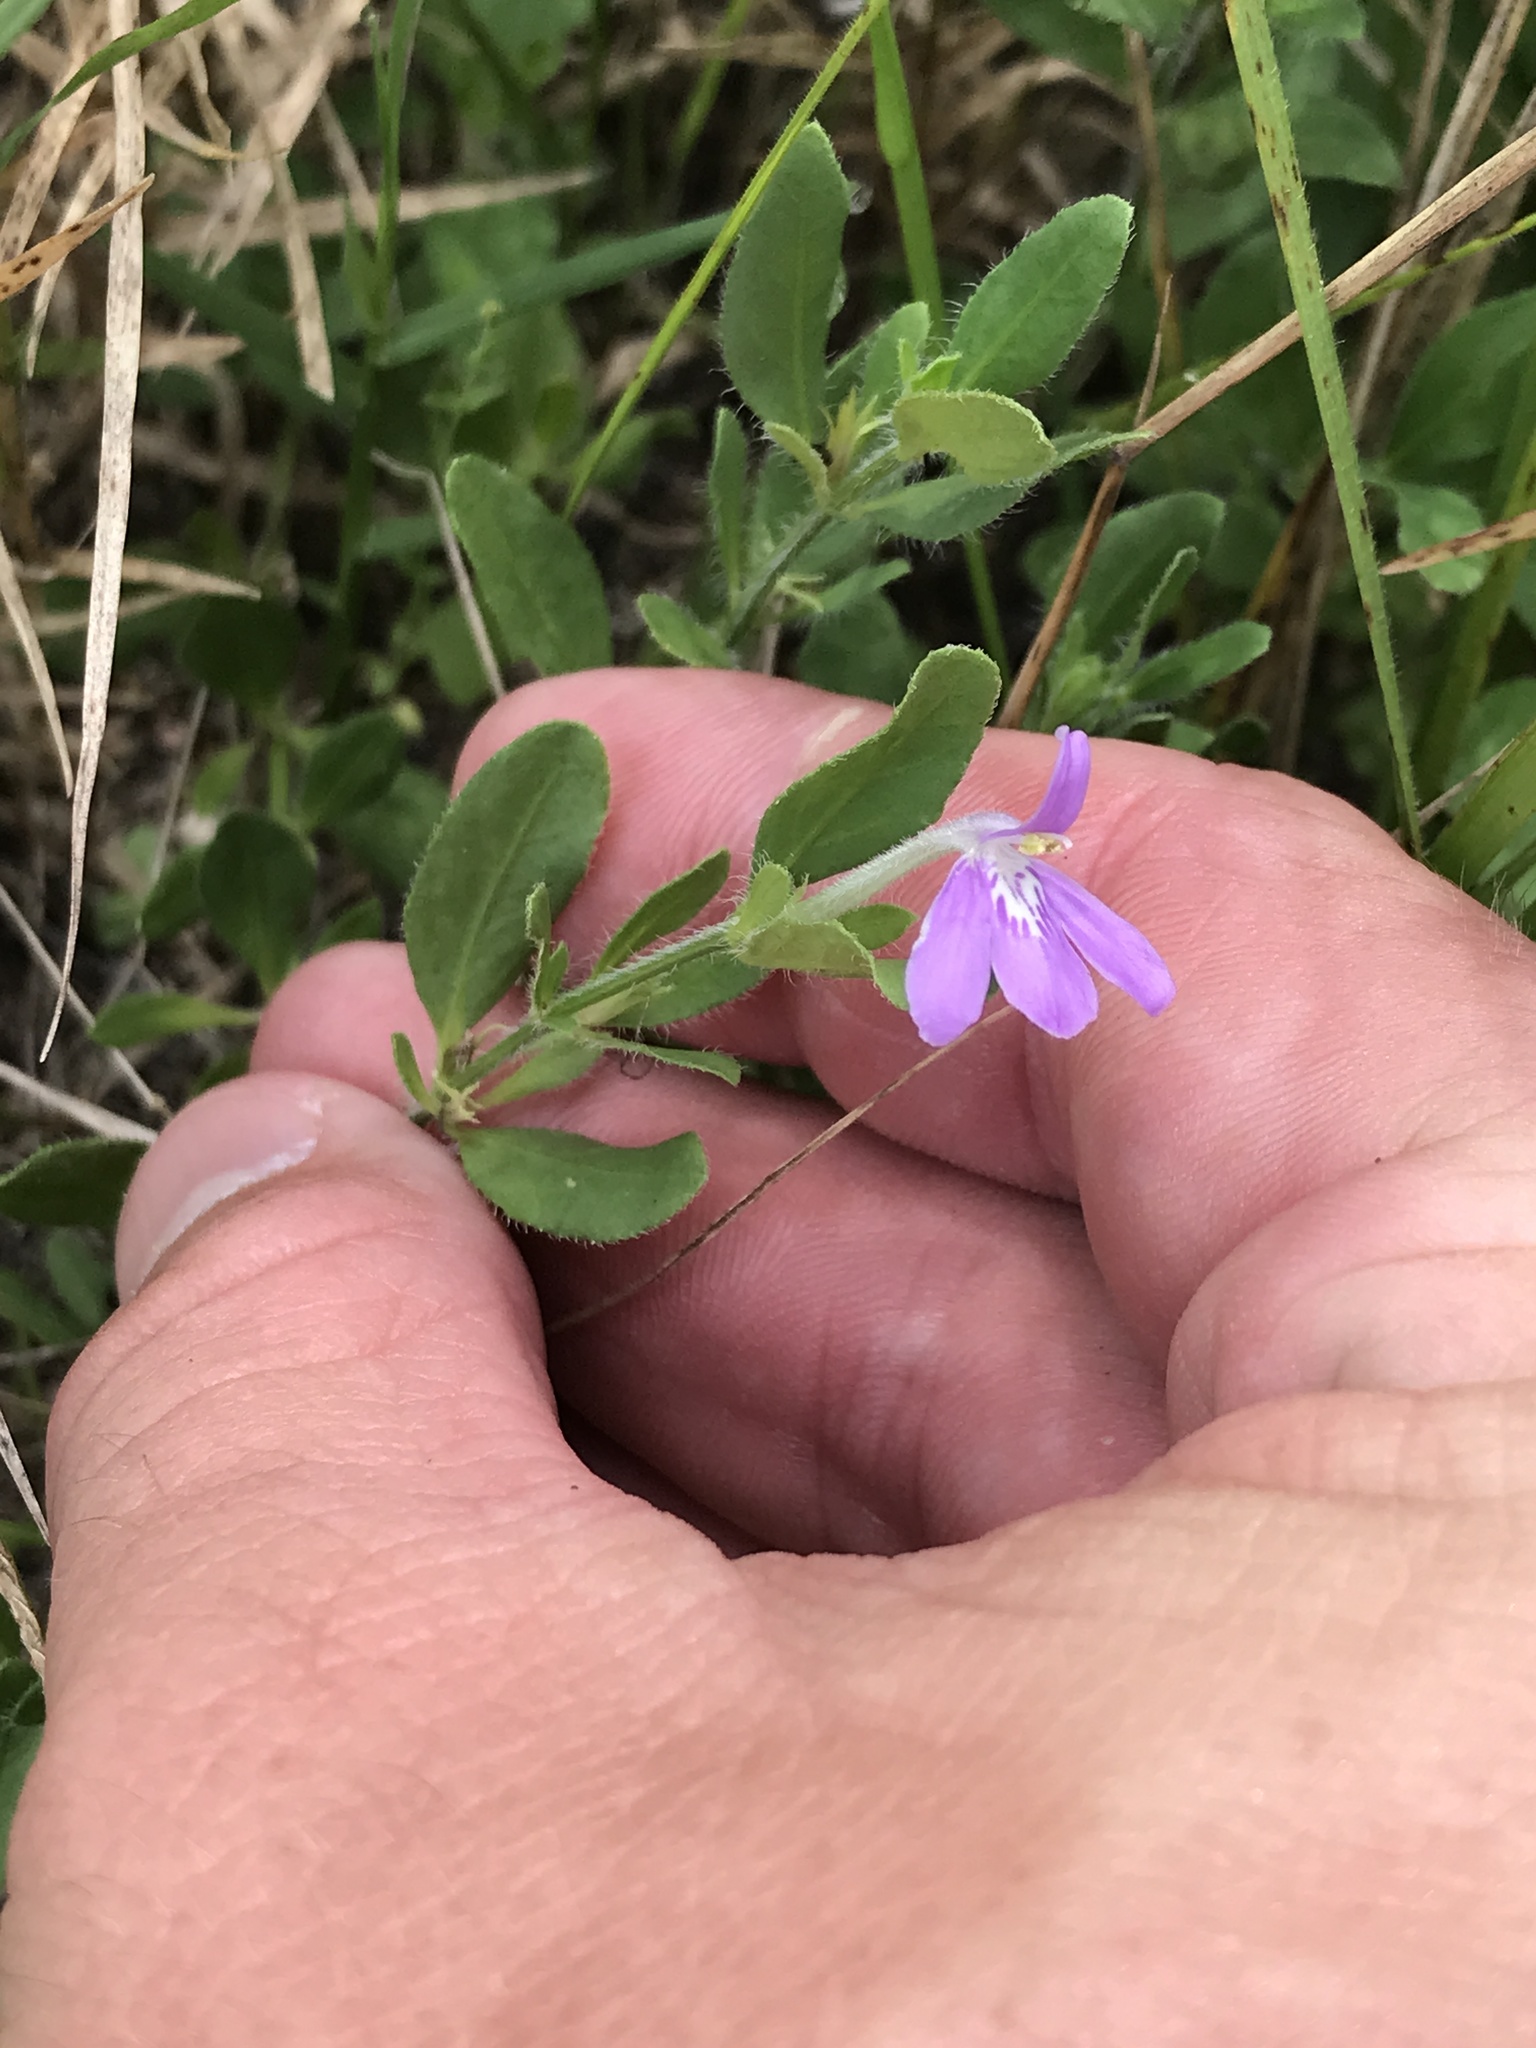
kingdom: Plantae
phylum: Tracheophyta
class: Magnoliopsida
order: Lamiales
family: Acanthaceae
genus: Justicia
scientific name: Justicia pilosella
